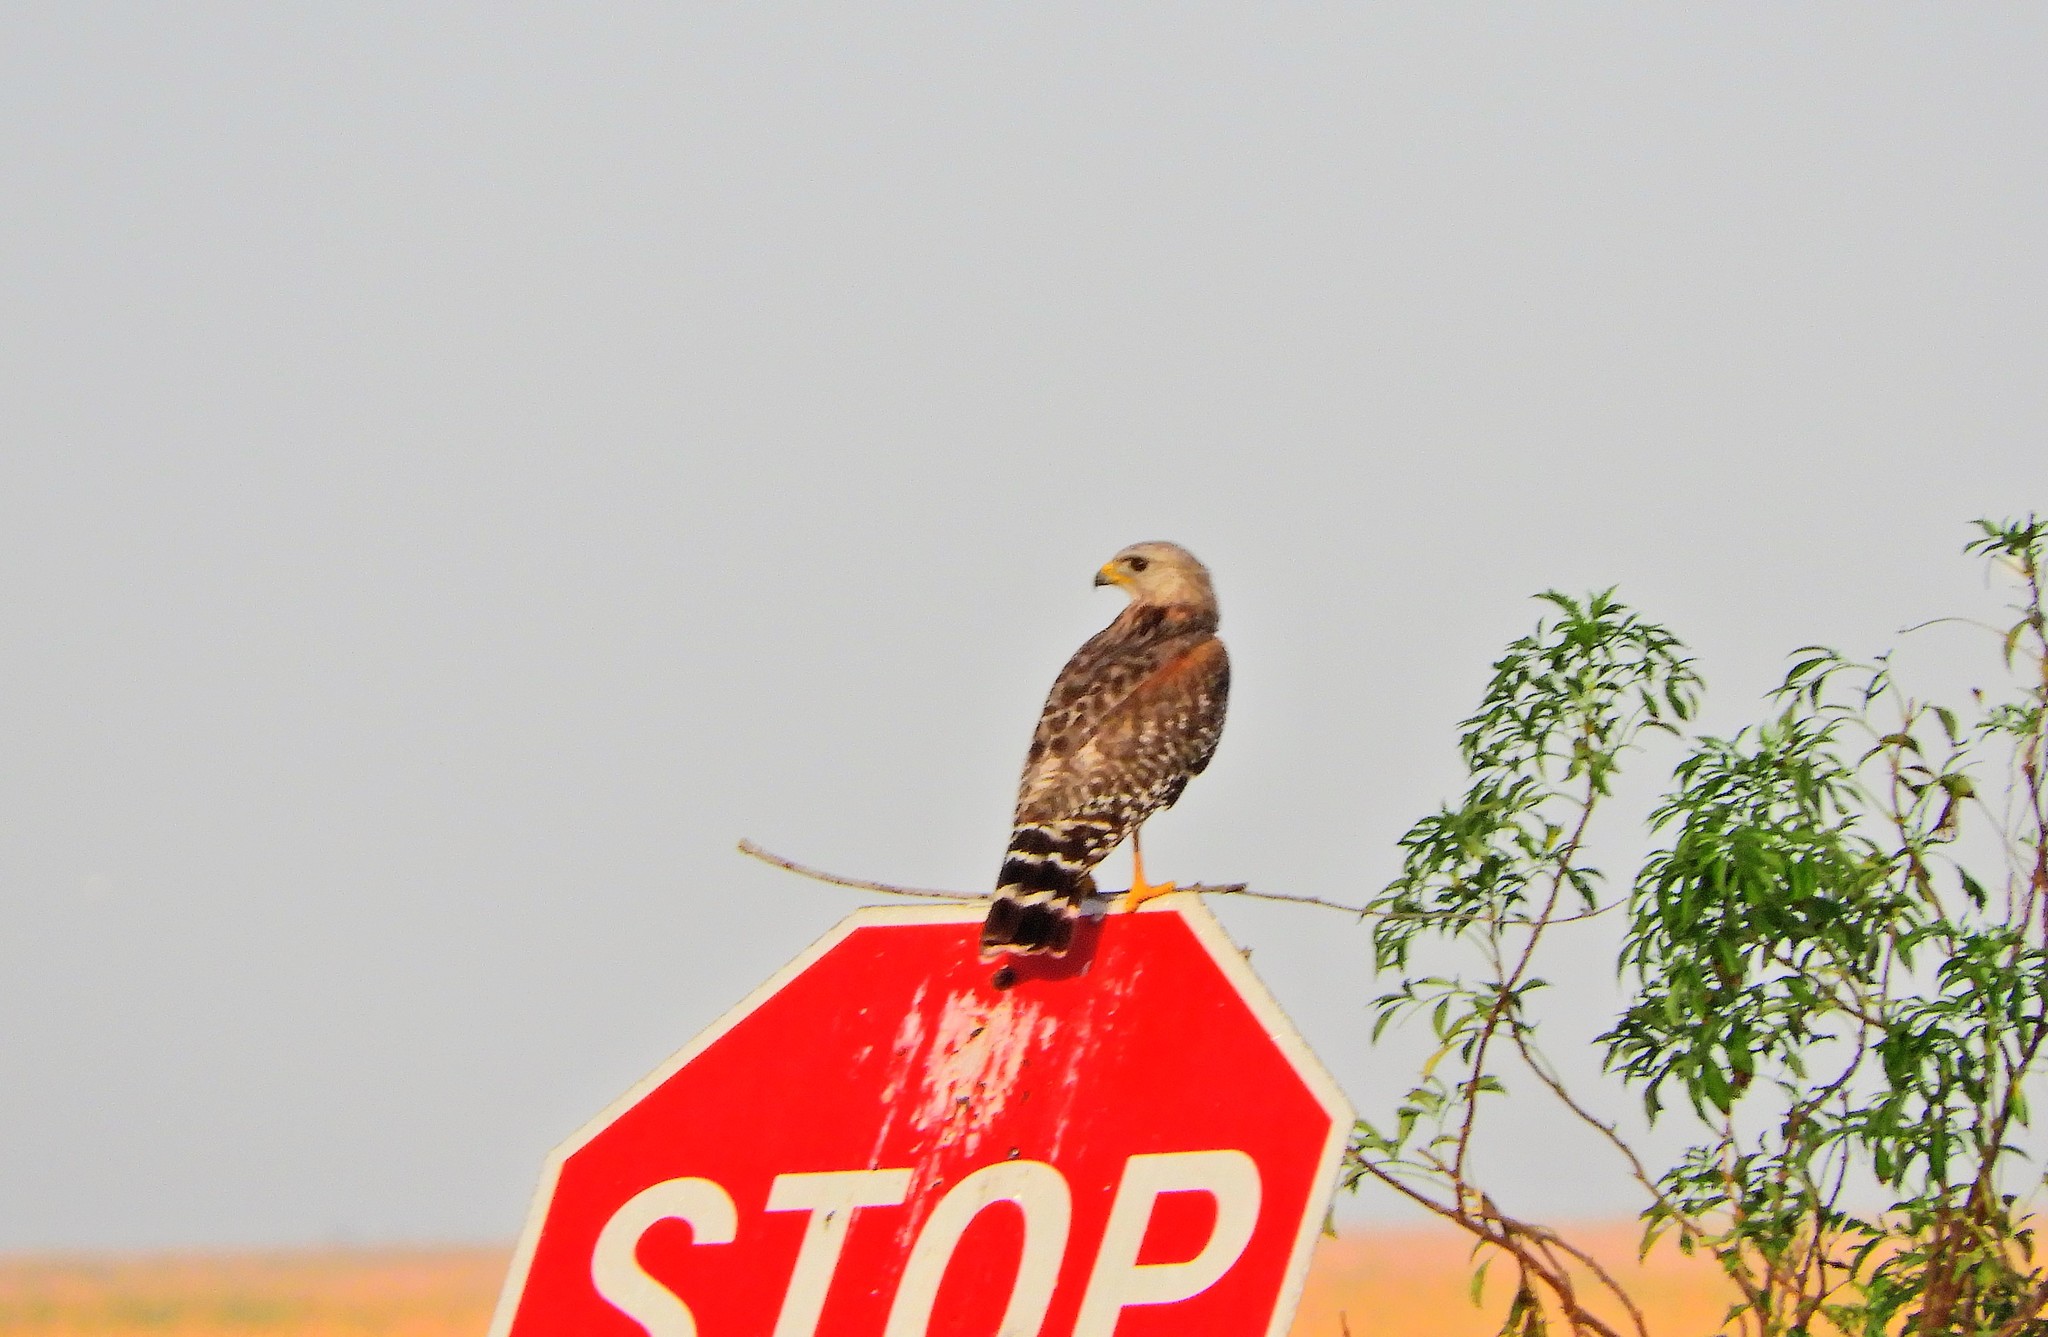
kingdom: Animalia
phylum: Chordata
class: Aves
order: Accipitriformes
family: Accipitridae
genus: Buteo
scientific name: Buteo lineatus
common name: Red-shouldered hawk
